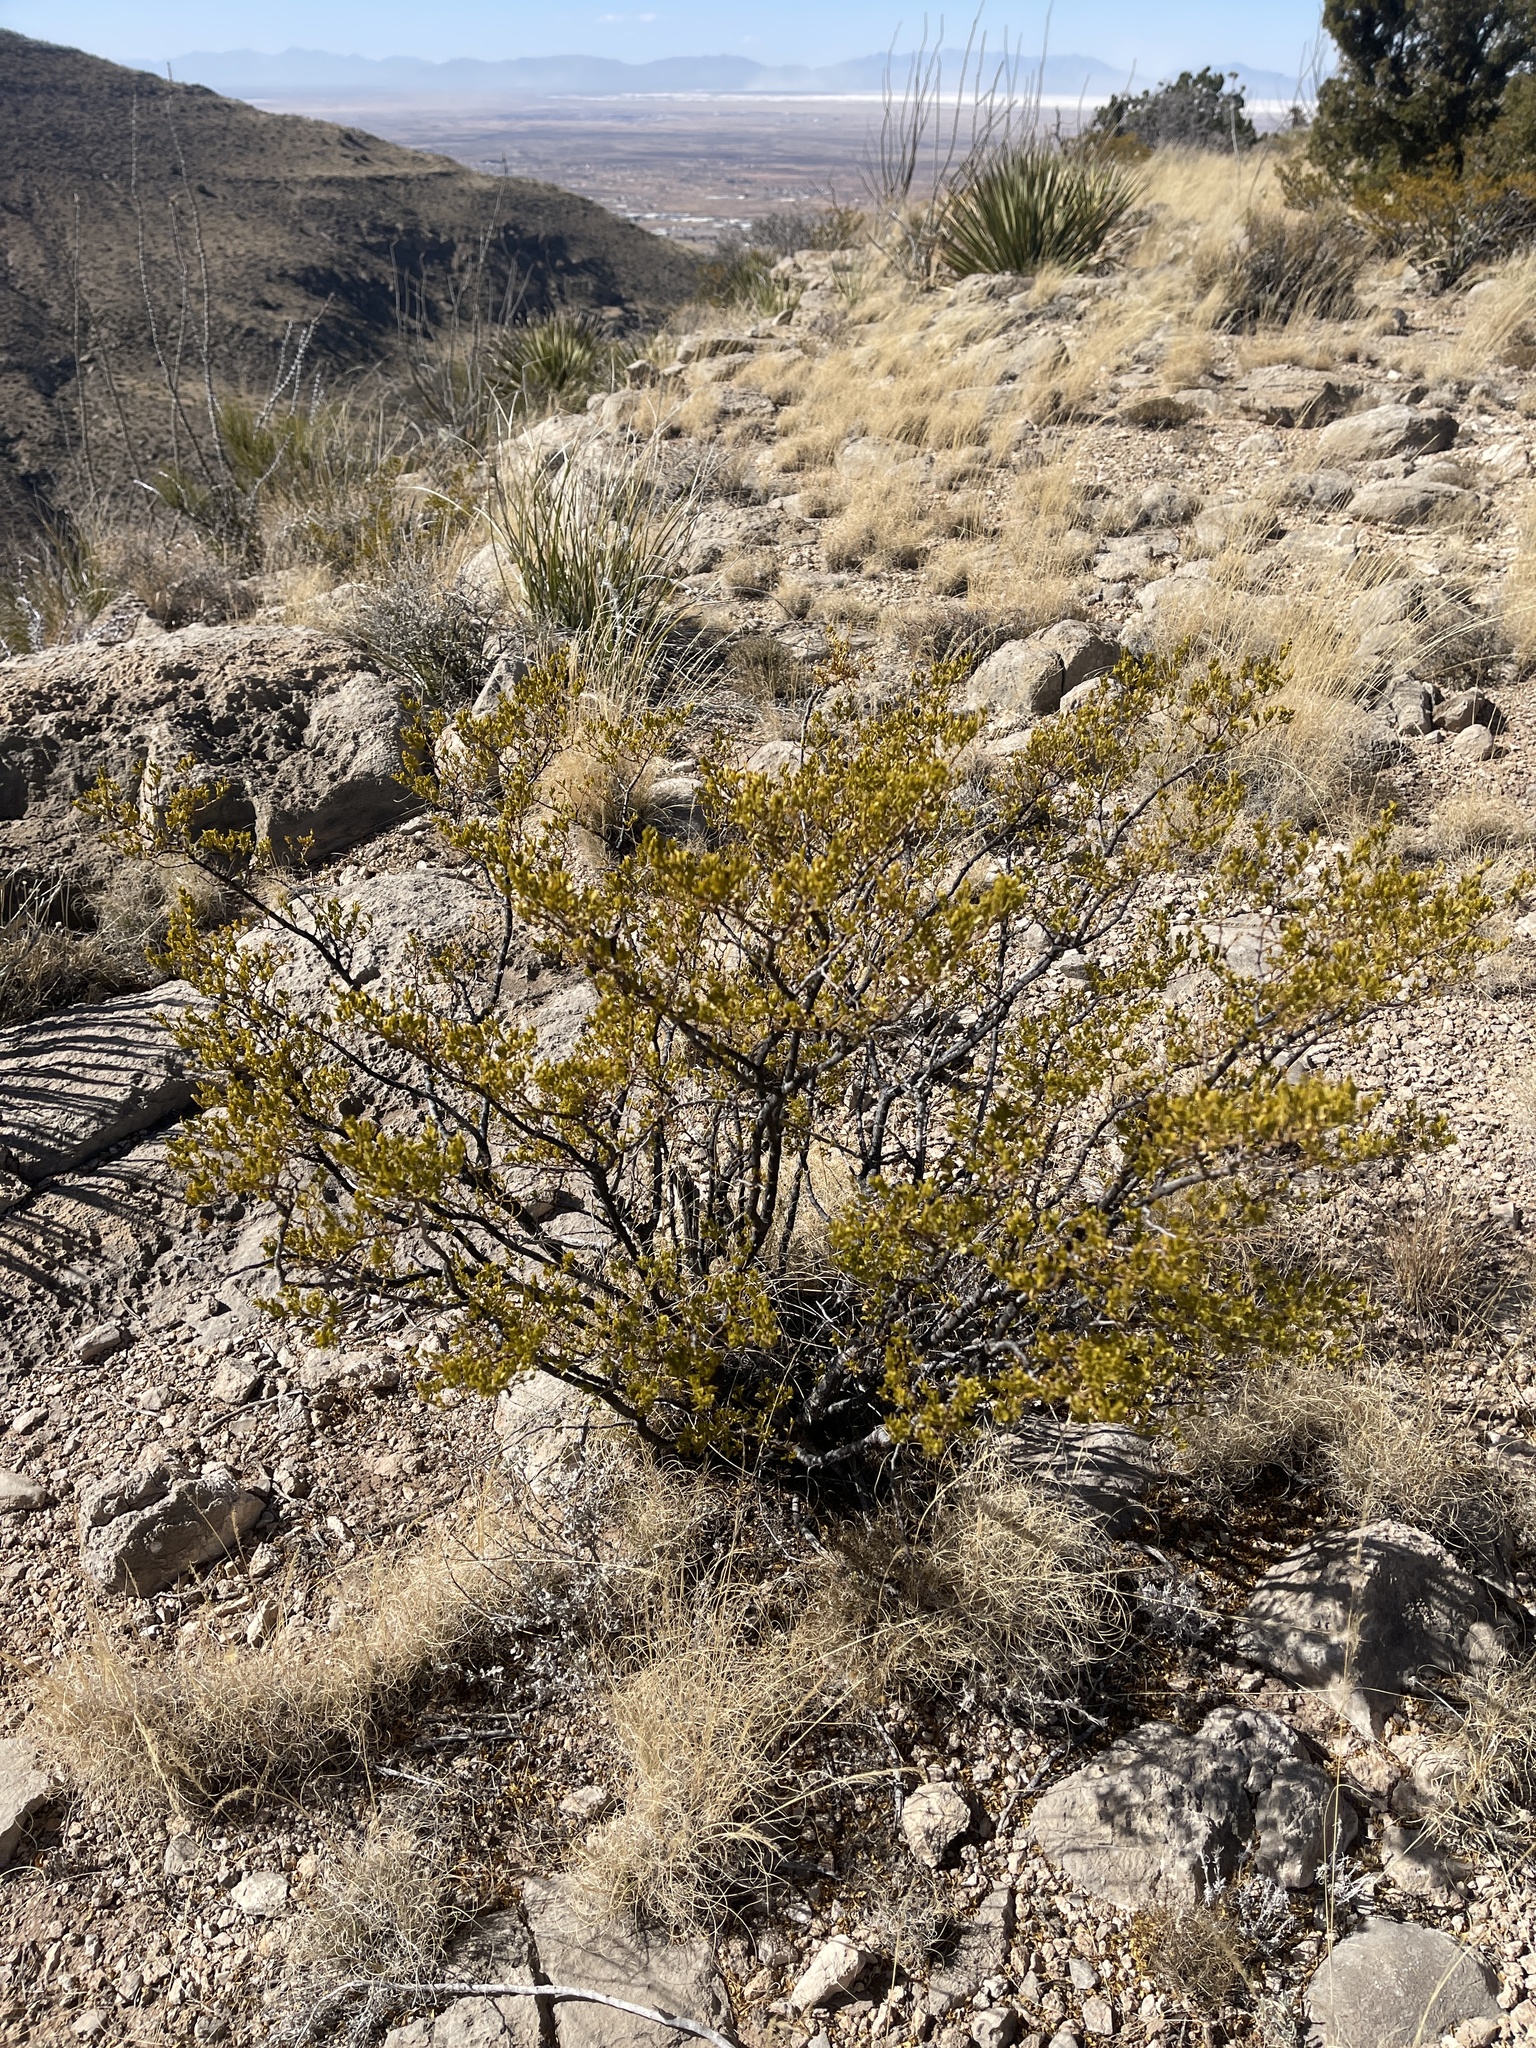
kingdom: Plantae
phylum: Tracheophyta
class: Magnoliopsida
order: Zygophyllales
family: Zygophyllaceae
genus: Larrea
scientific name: Larrea tridentata
